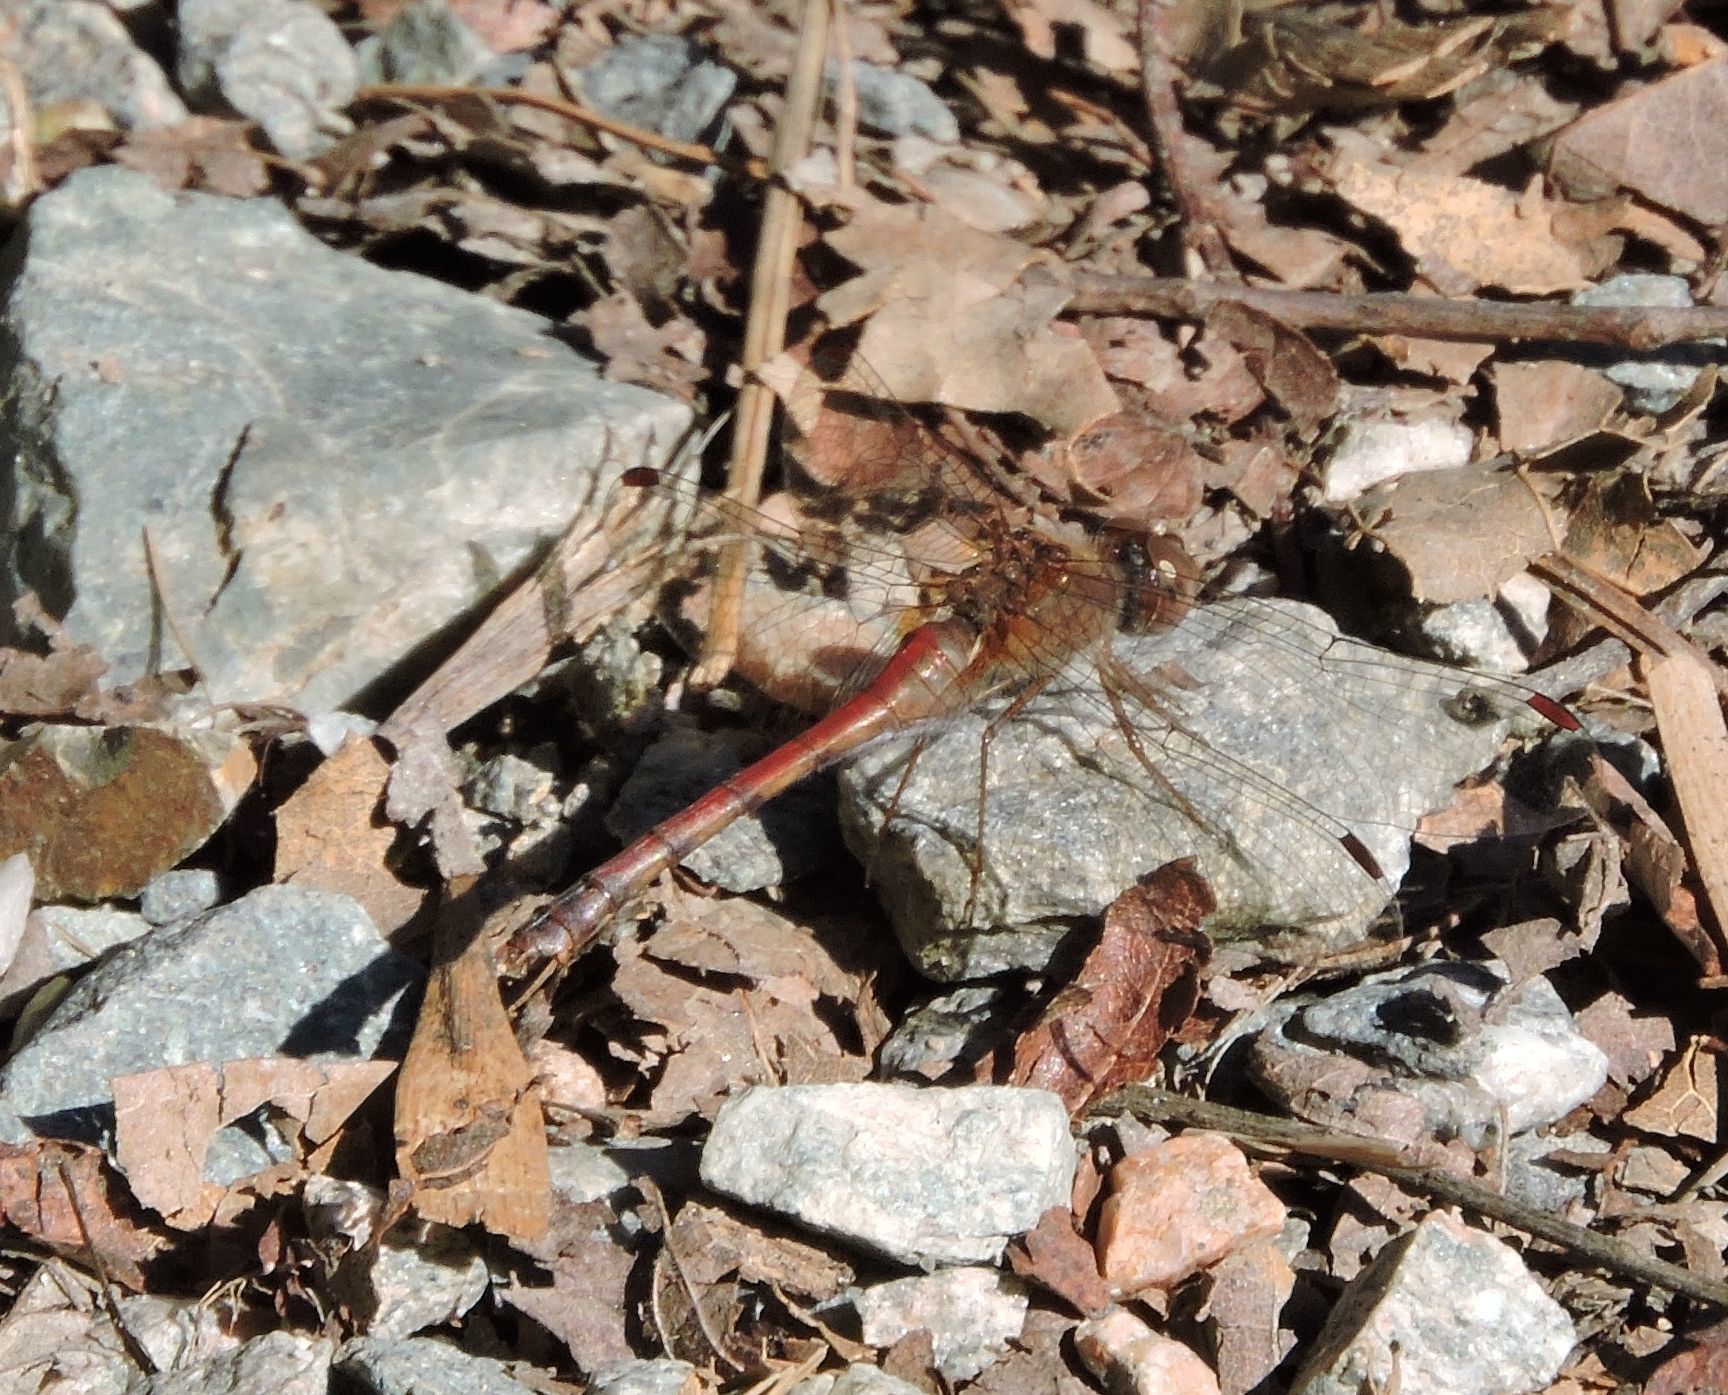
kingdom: Animalia
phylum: Arthropoda
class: Insecta
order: Odonata
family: Libellulidae
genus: Sympetrum
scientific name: Sympetrum vicinum
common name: Autumn meadowhawk
